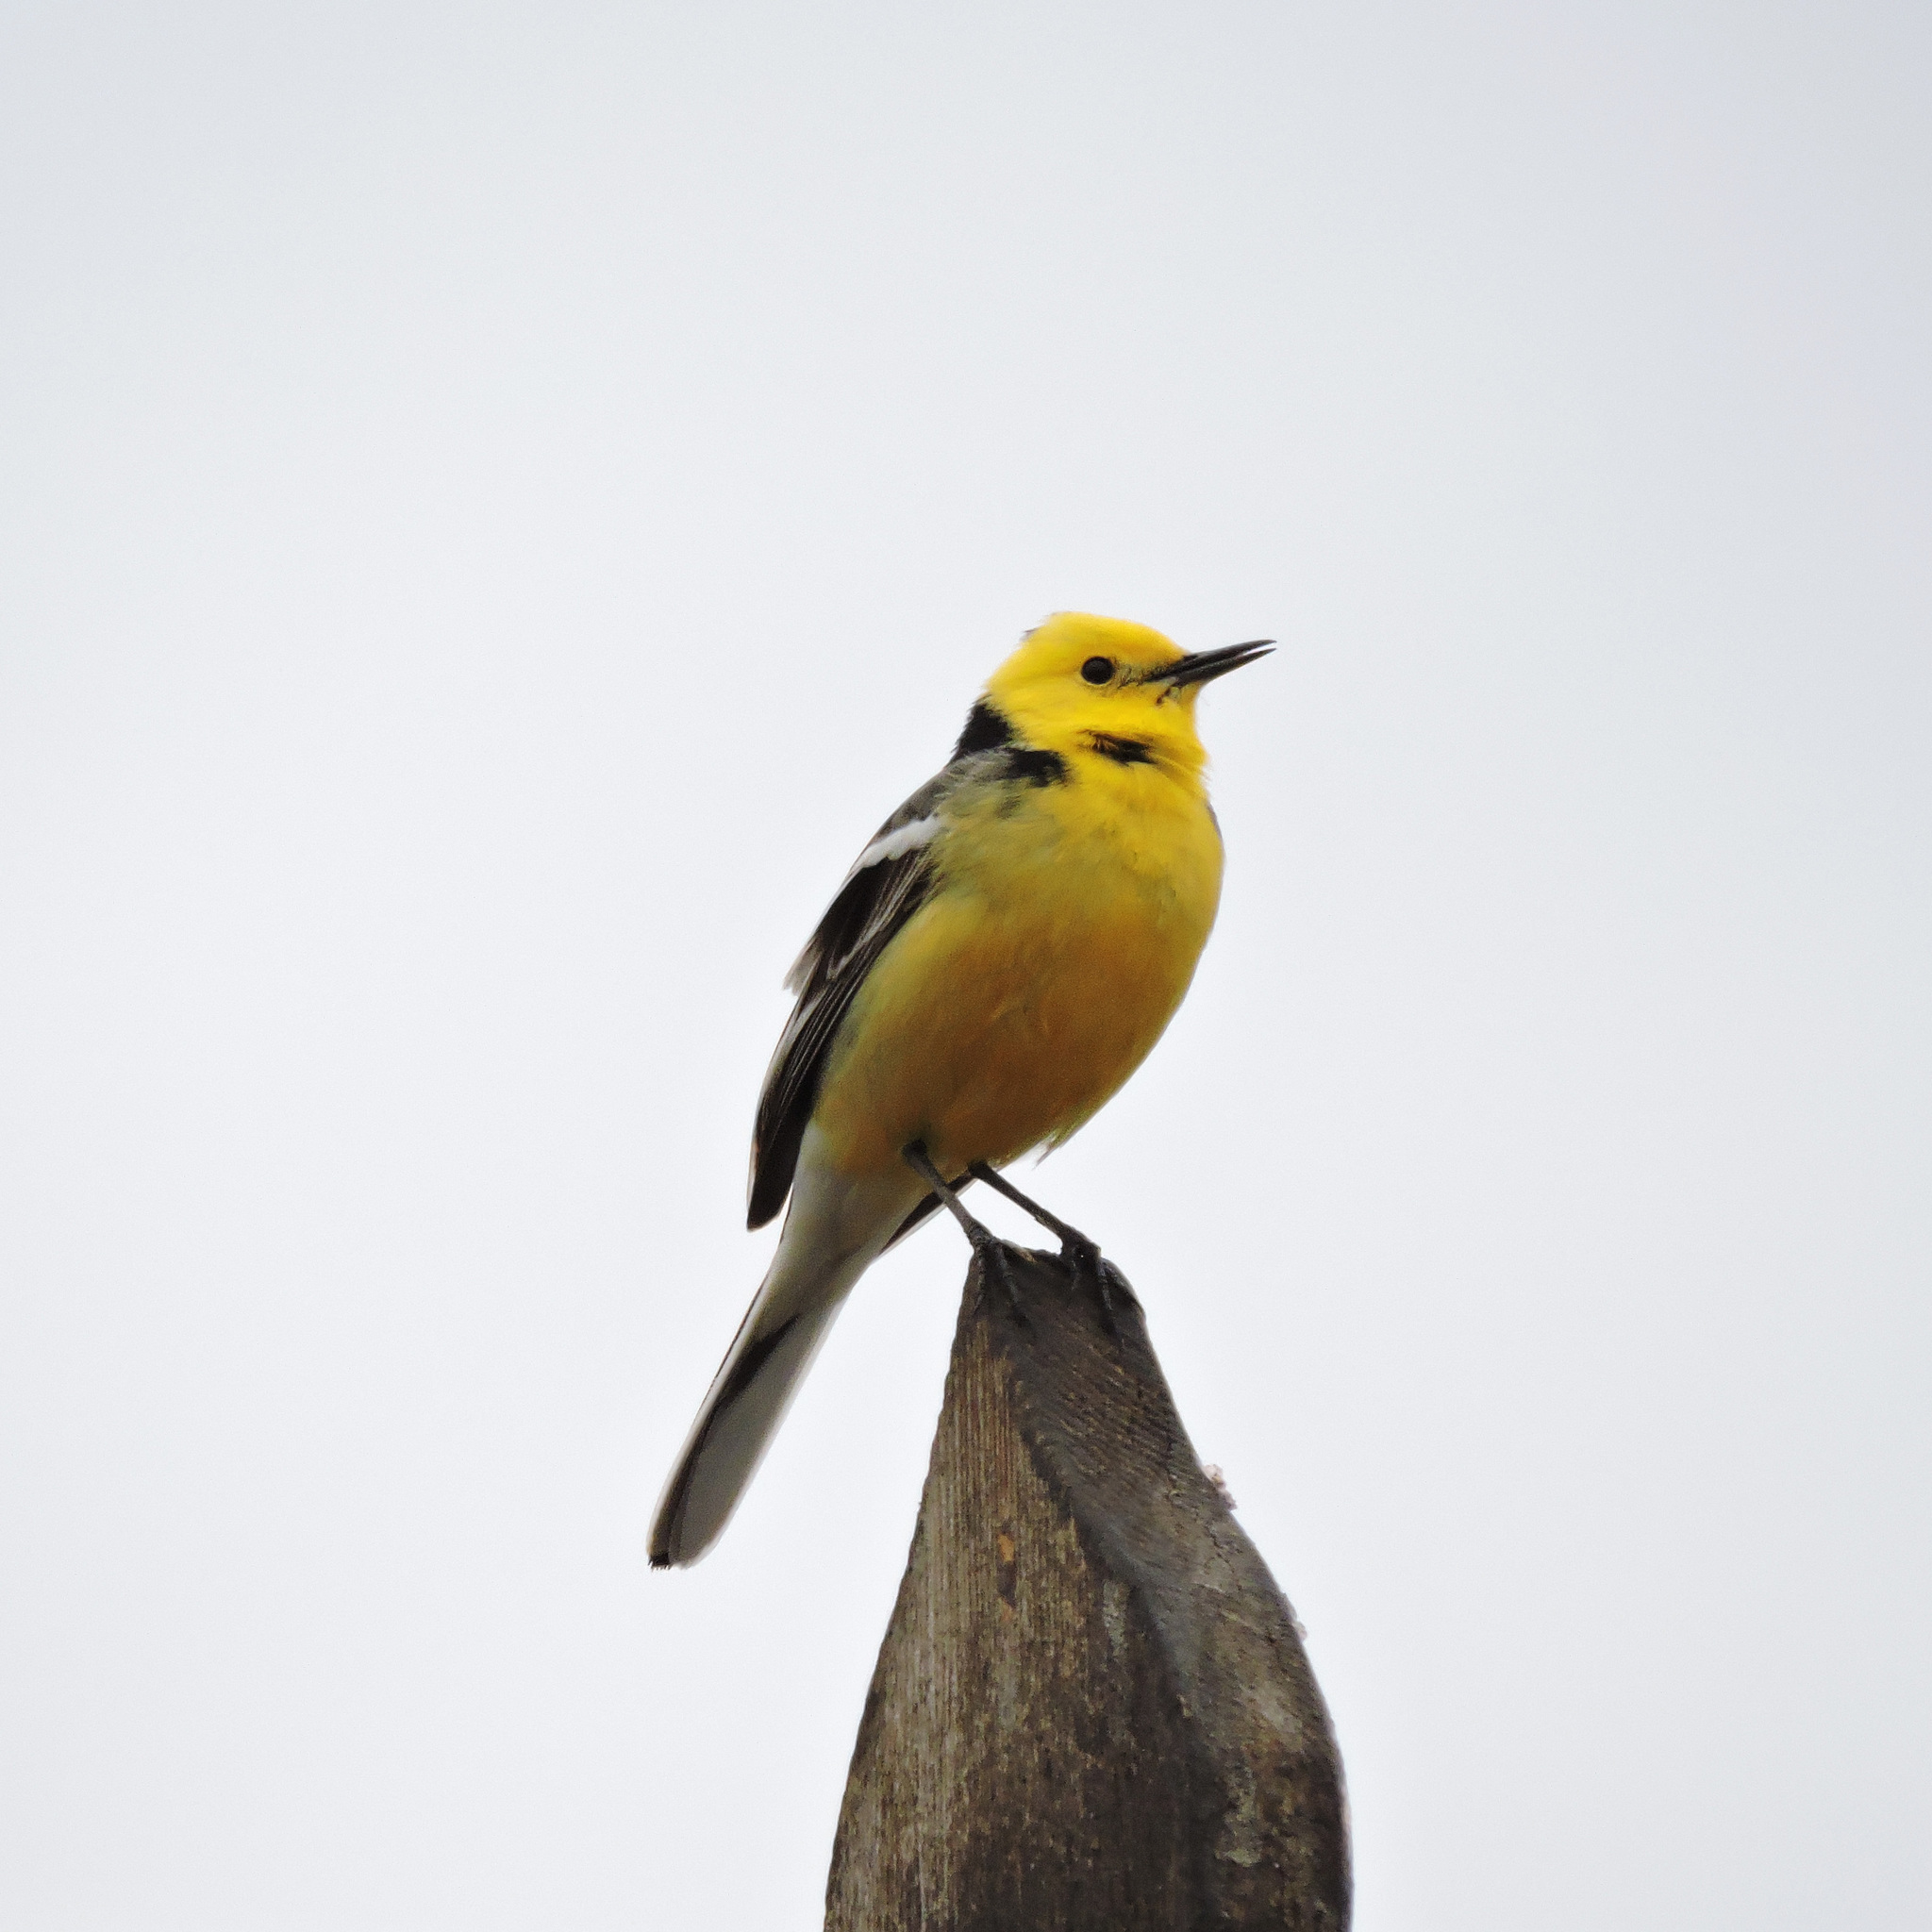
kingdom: Animalia
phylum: Chordata
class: Aves
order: Passeriformes
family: Motacillidae
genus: Motacilla
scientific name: Motacilla citreola
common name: Citrine wagtail
